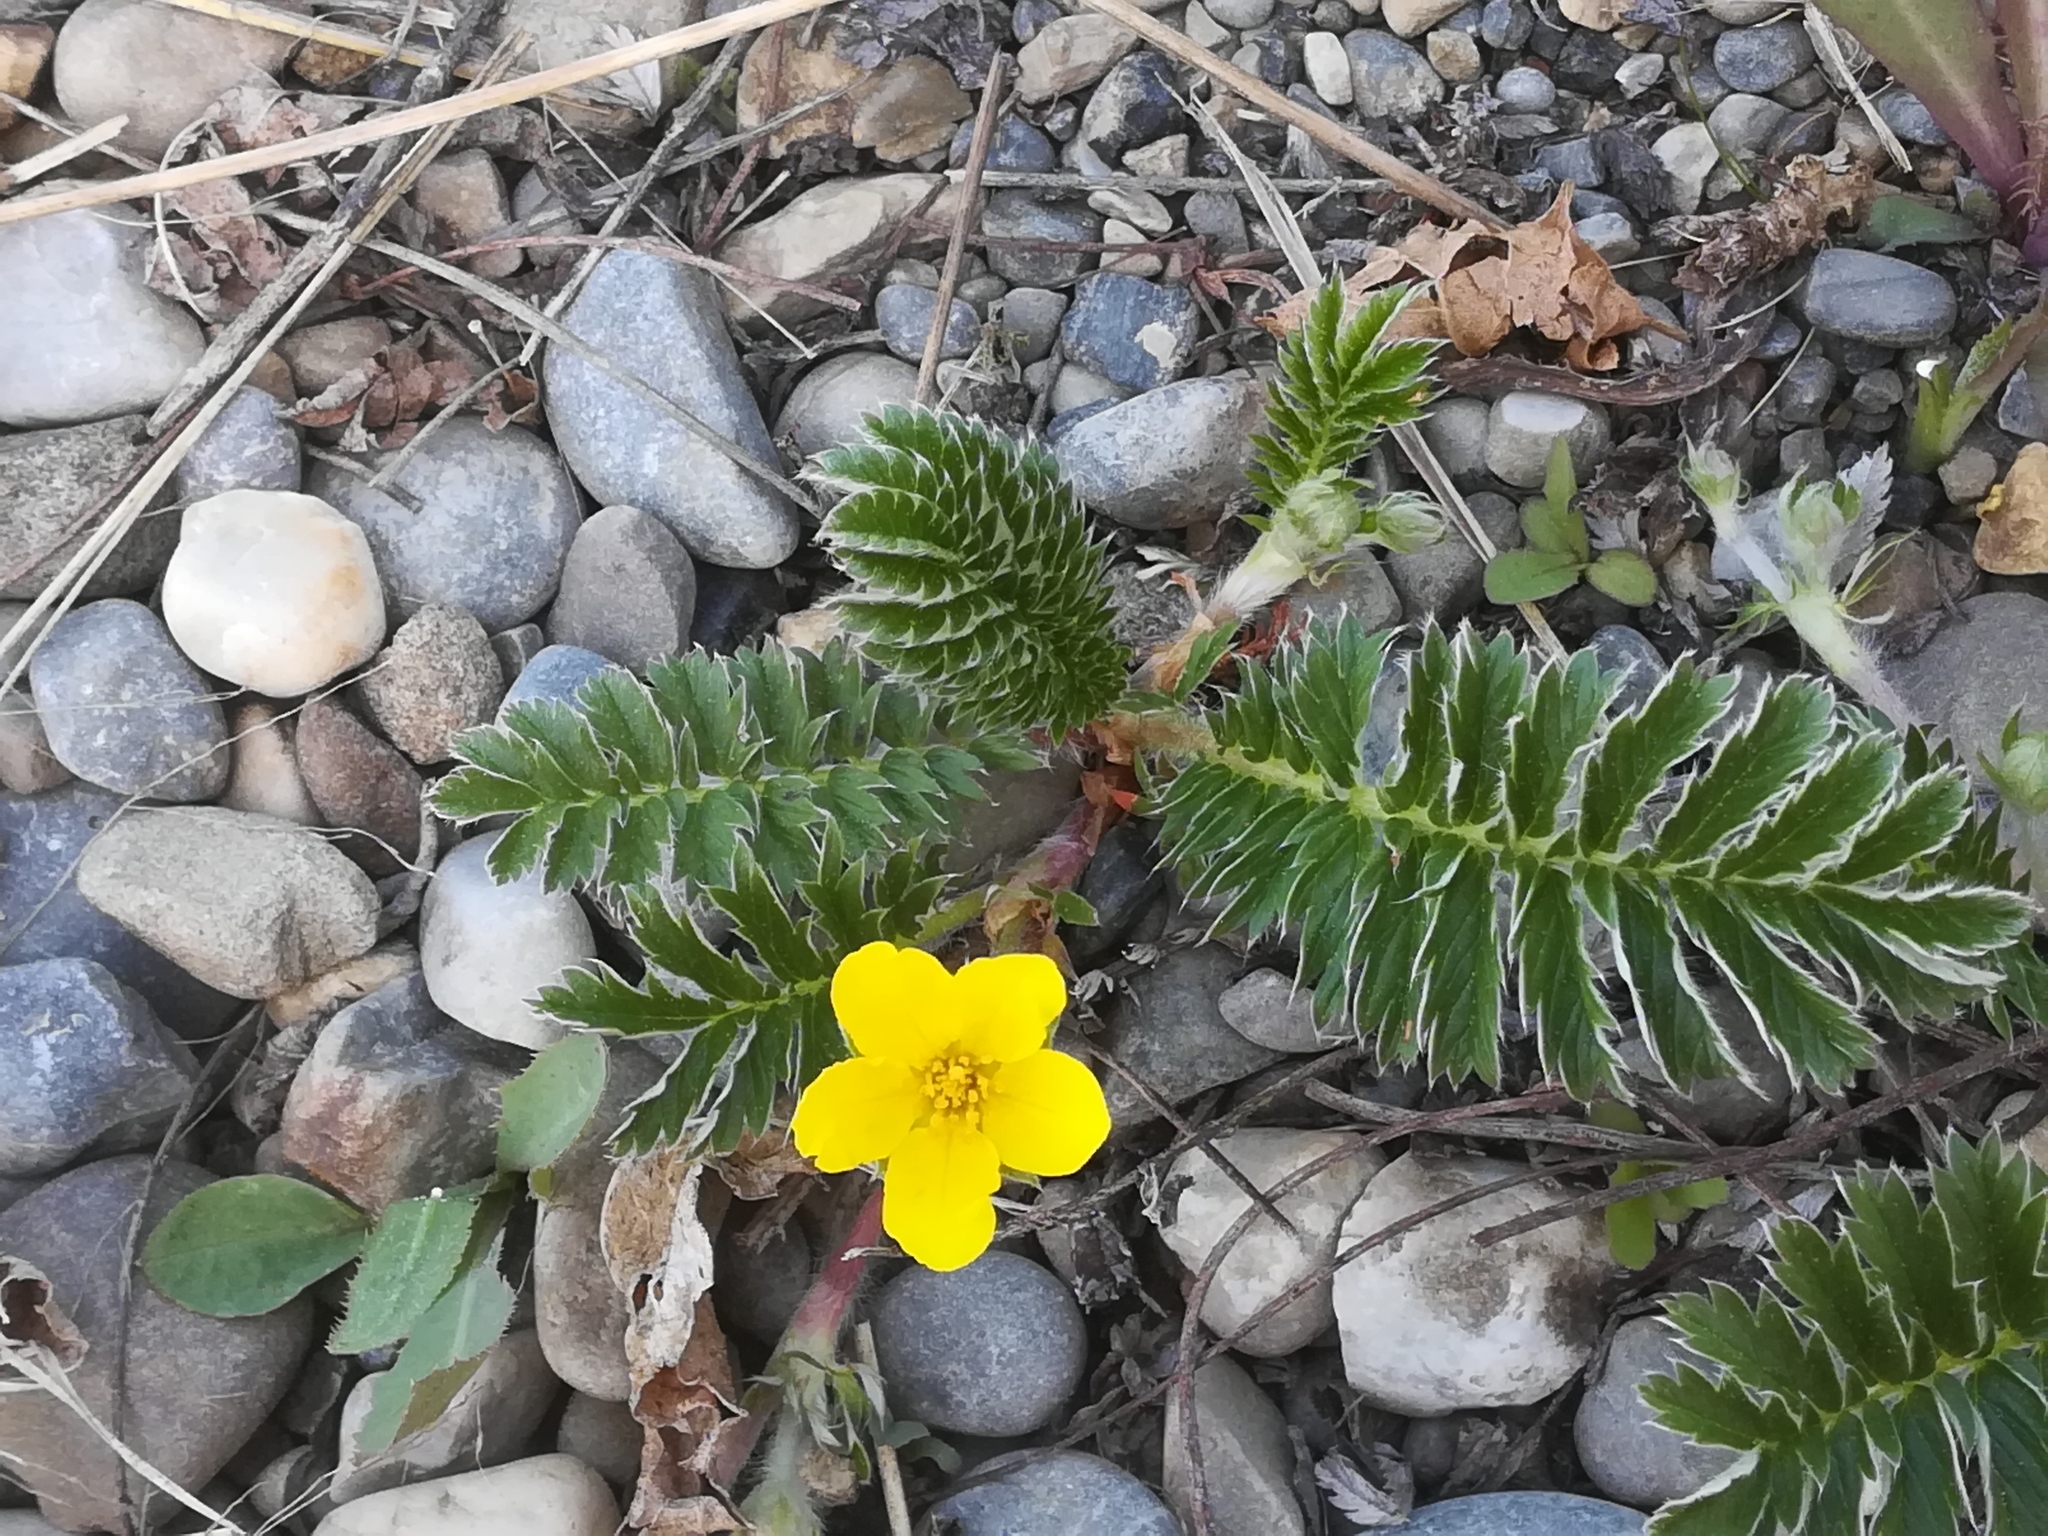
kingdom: Plantae
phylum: Tracheophyta
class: Magnoliopsida
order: Rosales
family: Rosaceae
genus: Argentina
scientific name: Argentina anserina
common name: Common silverweed
